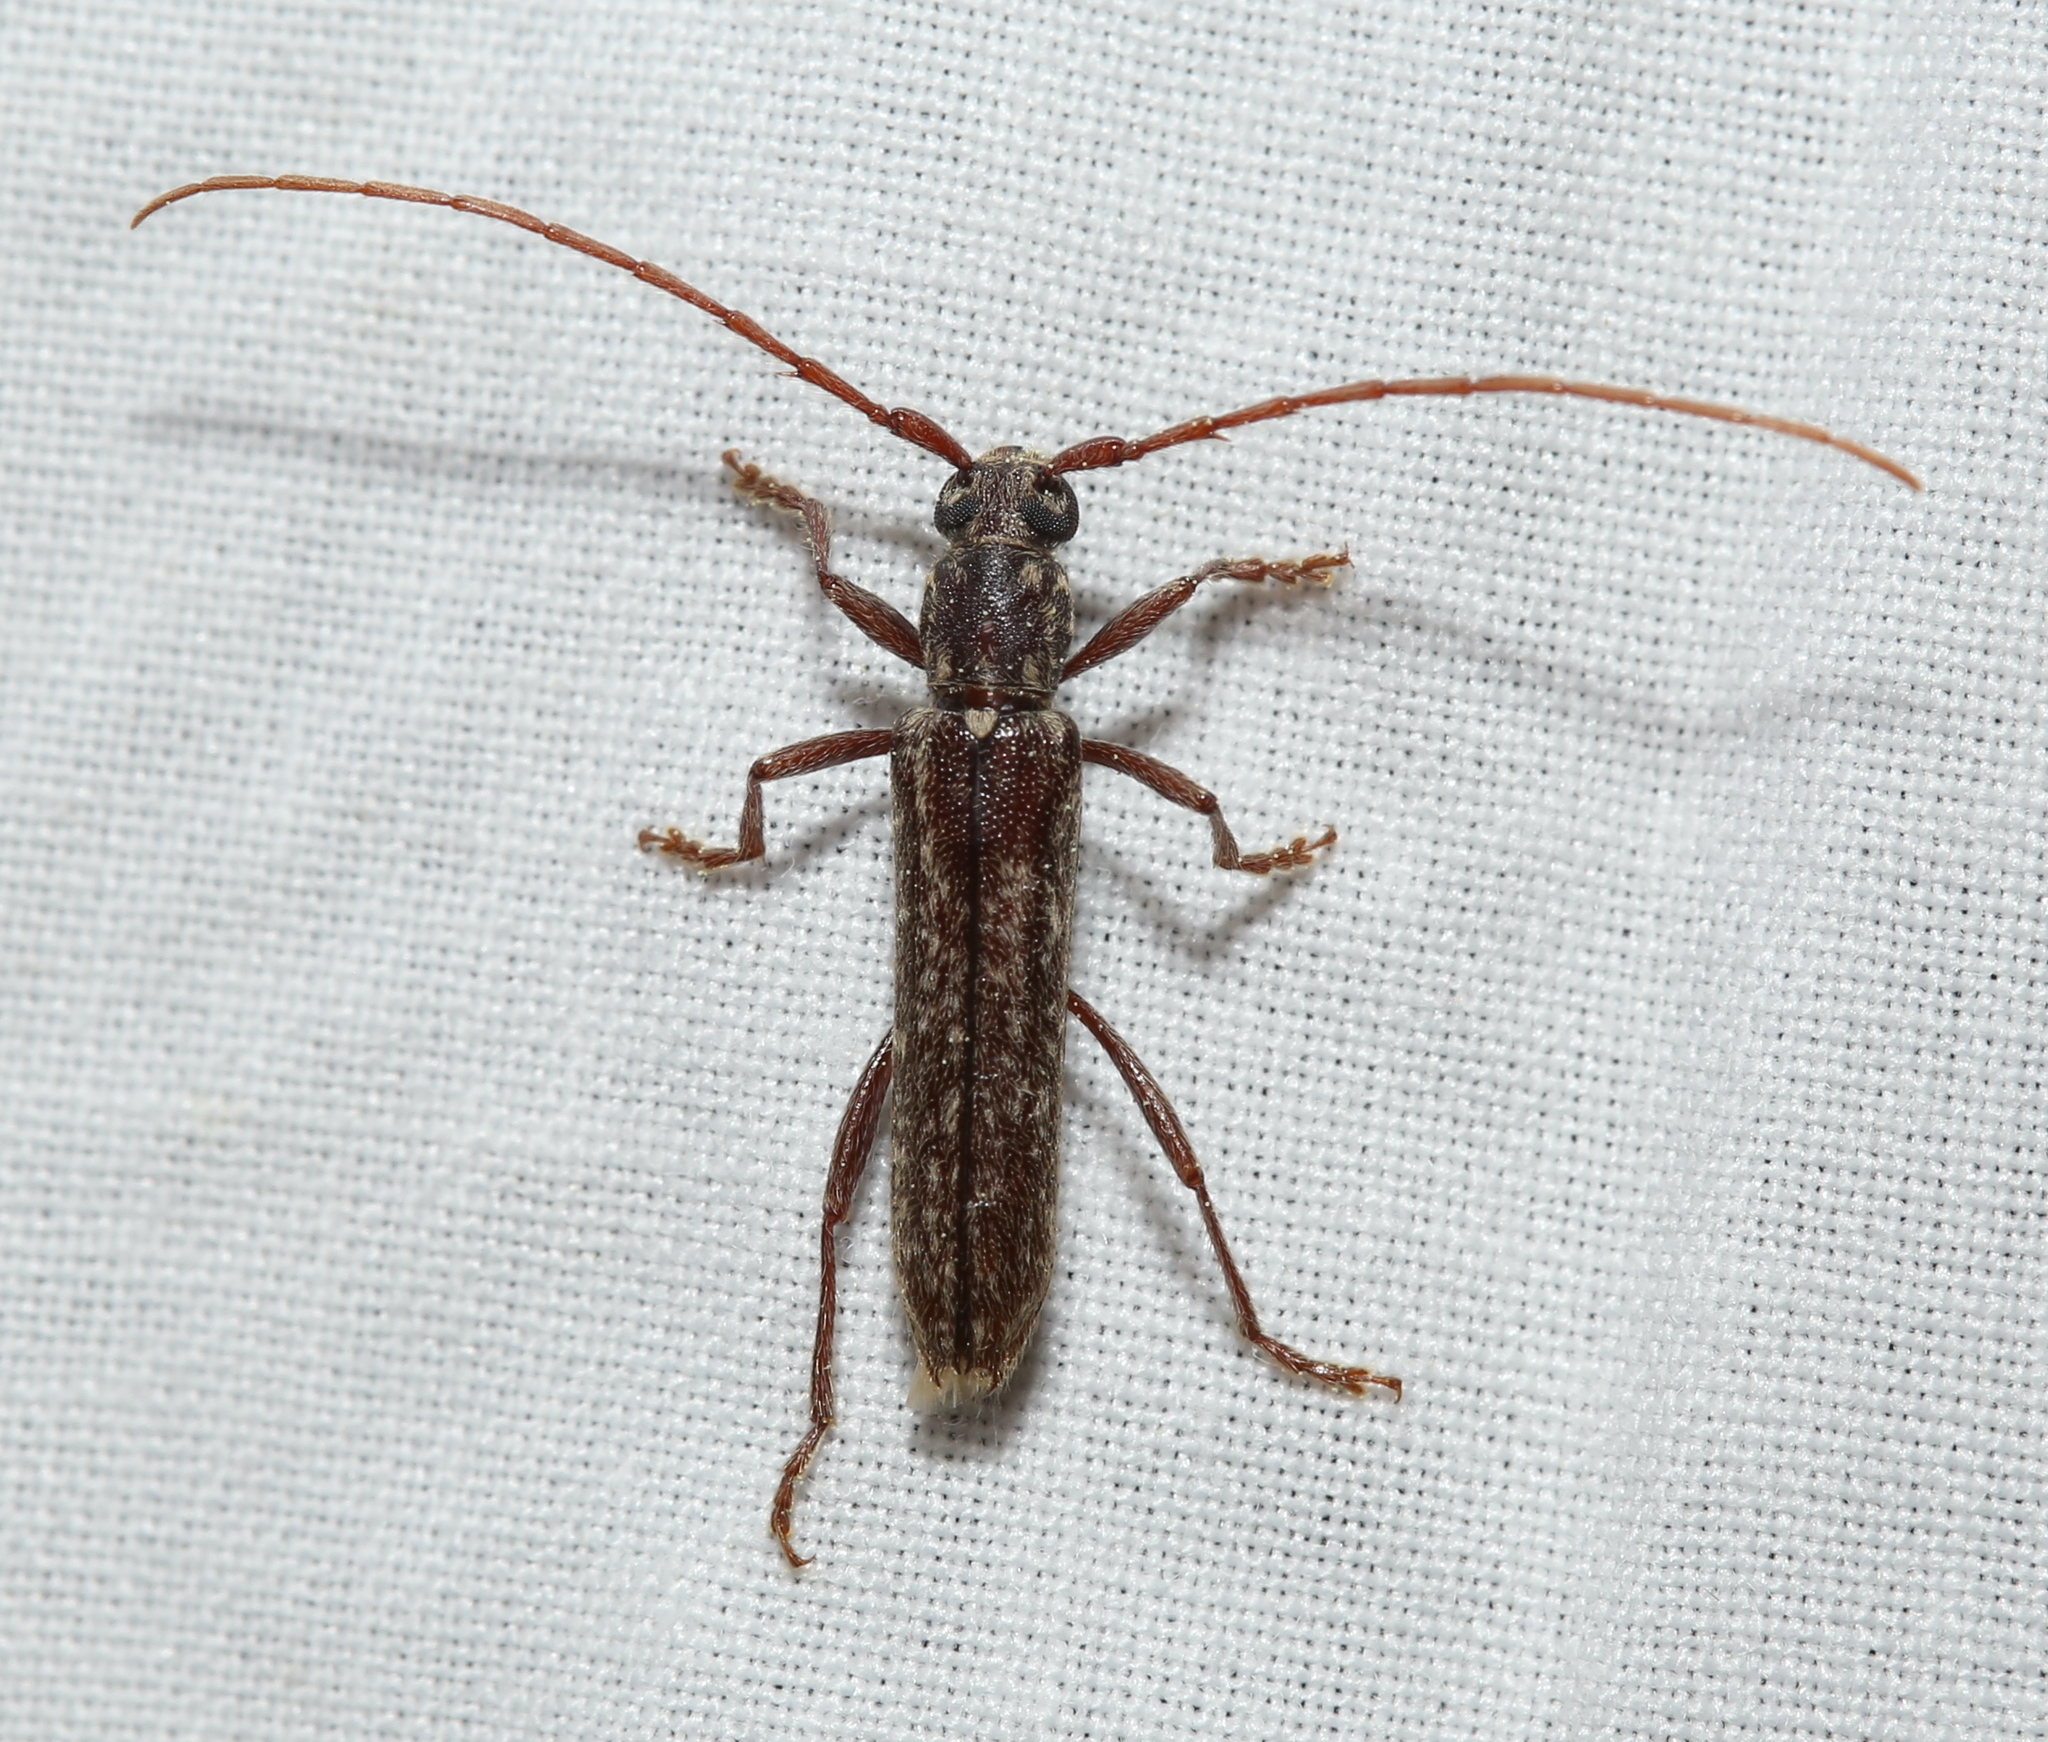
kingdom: Animalia
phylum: Arthropoda
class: Insecta
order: Coleoptera
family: Cerambycidae
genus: Anelaphus
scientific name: Anelaphus villosus
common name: Twig pruner
